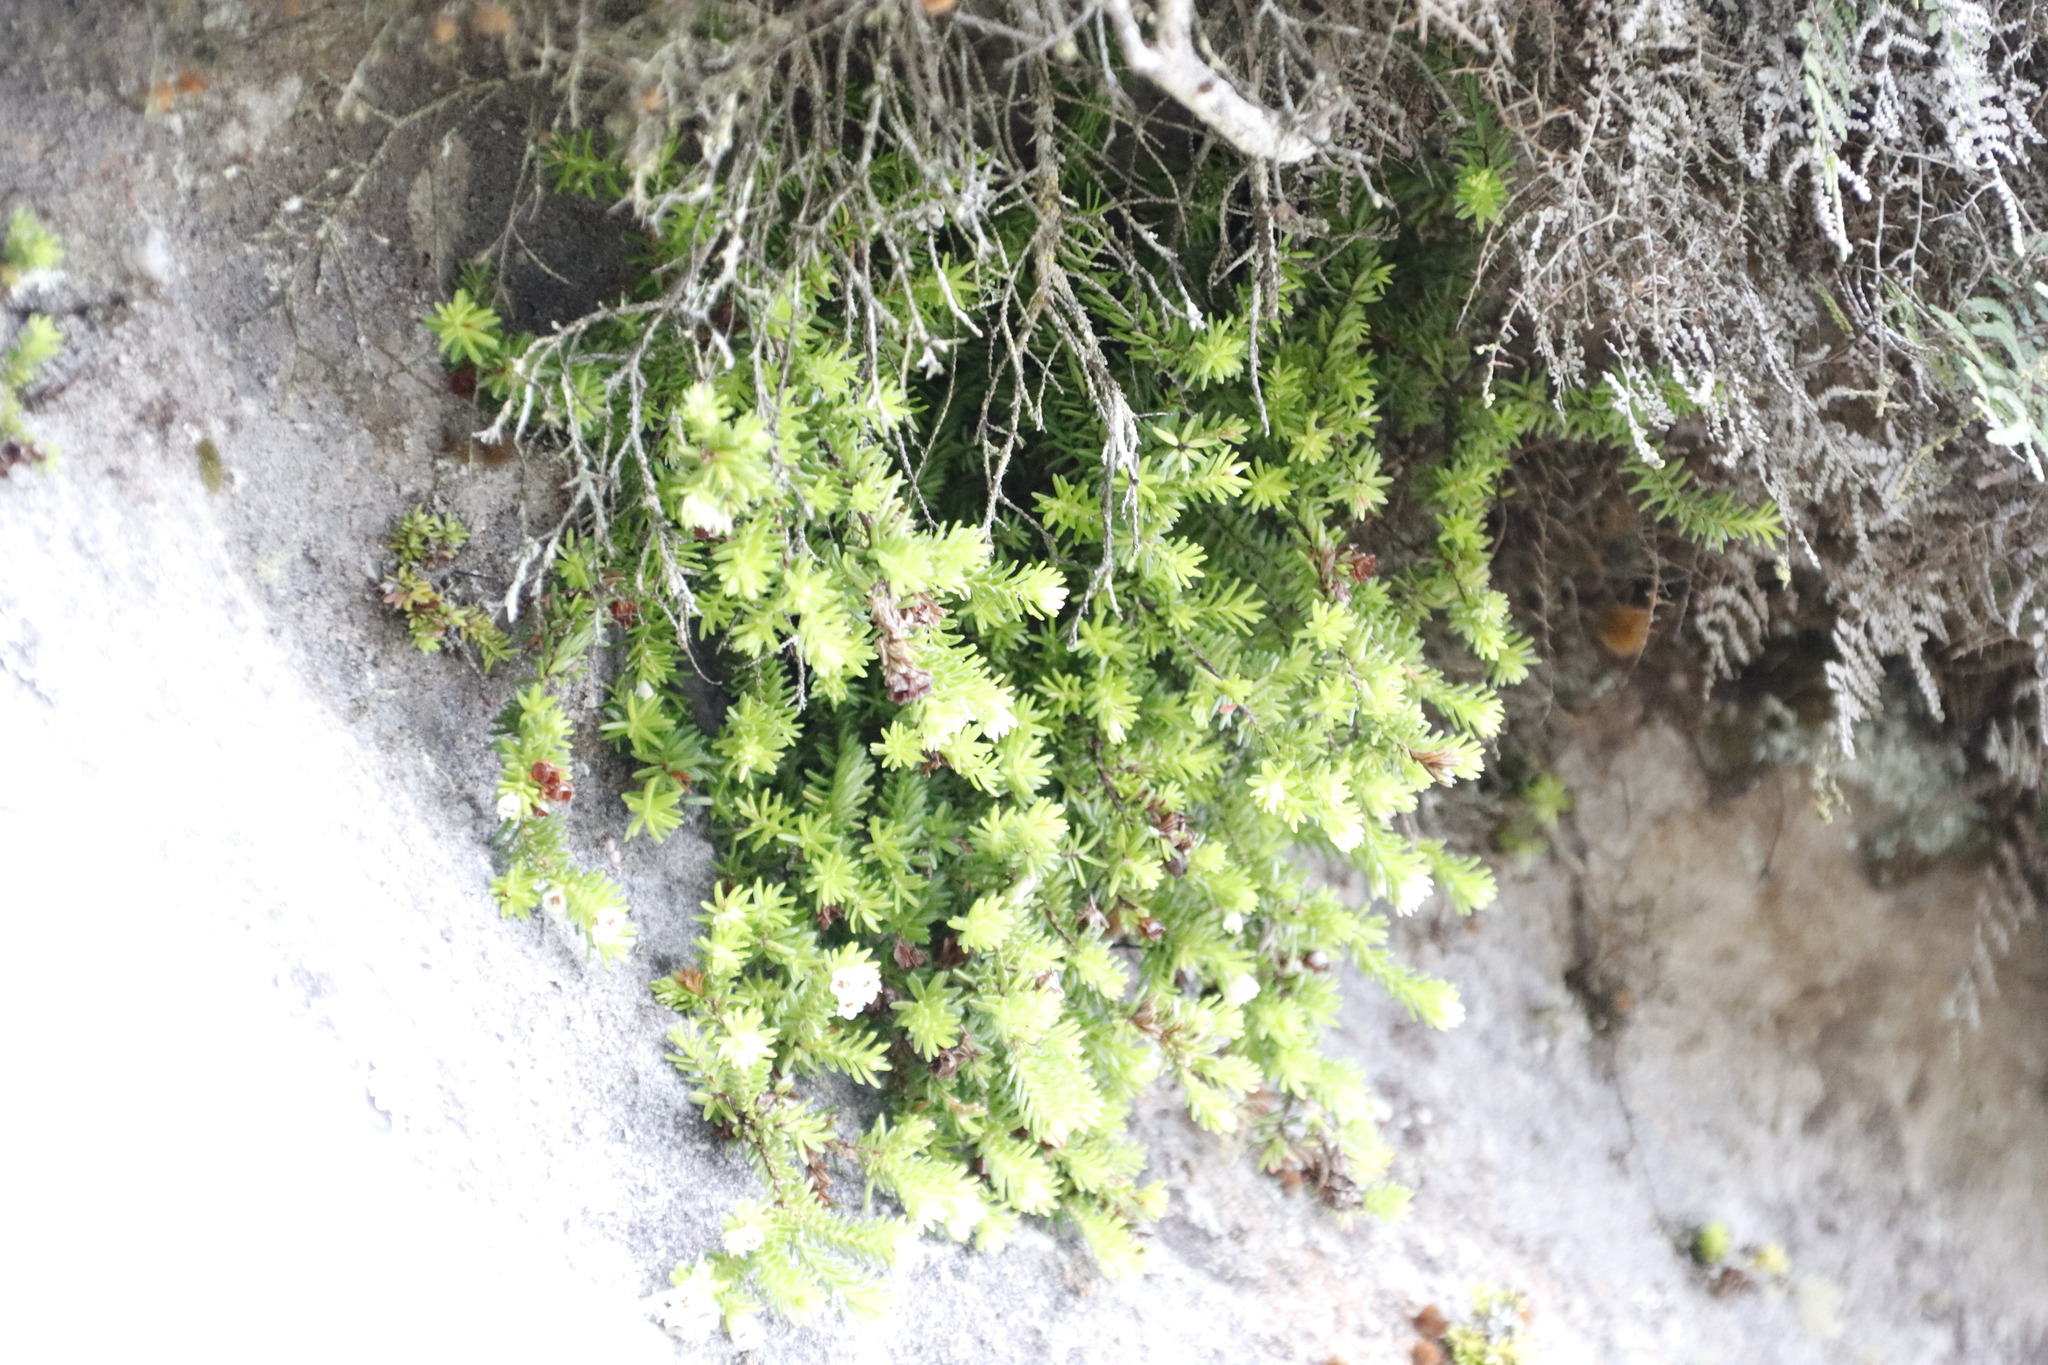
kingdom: Plantae
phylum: Tracheophyta
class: Magnoliopsida
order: Ericales
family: Ericaceae
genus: Erica
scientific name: Erica depressa
